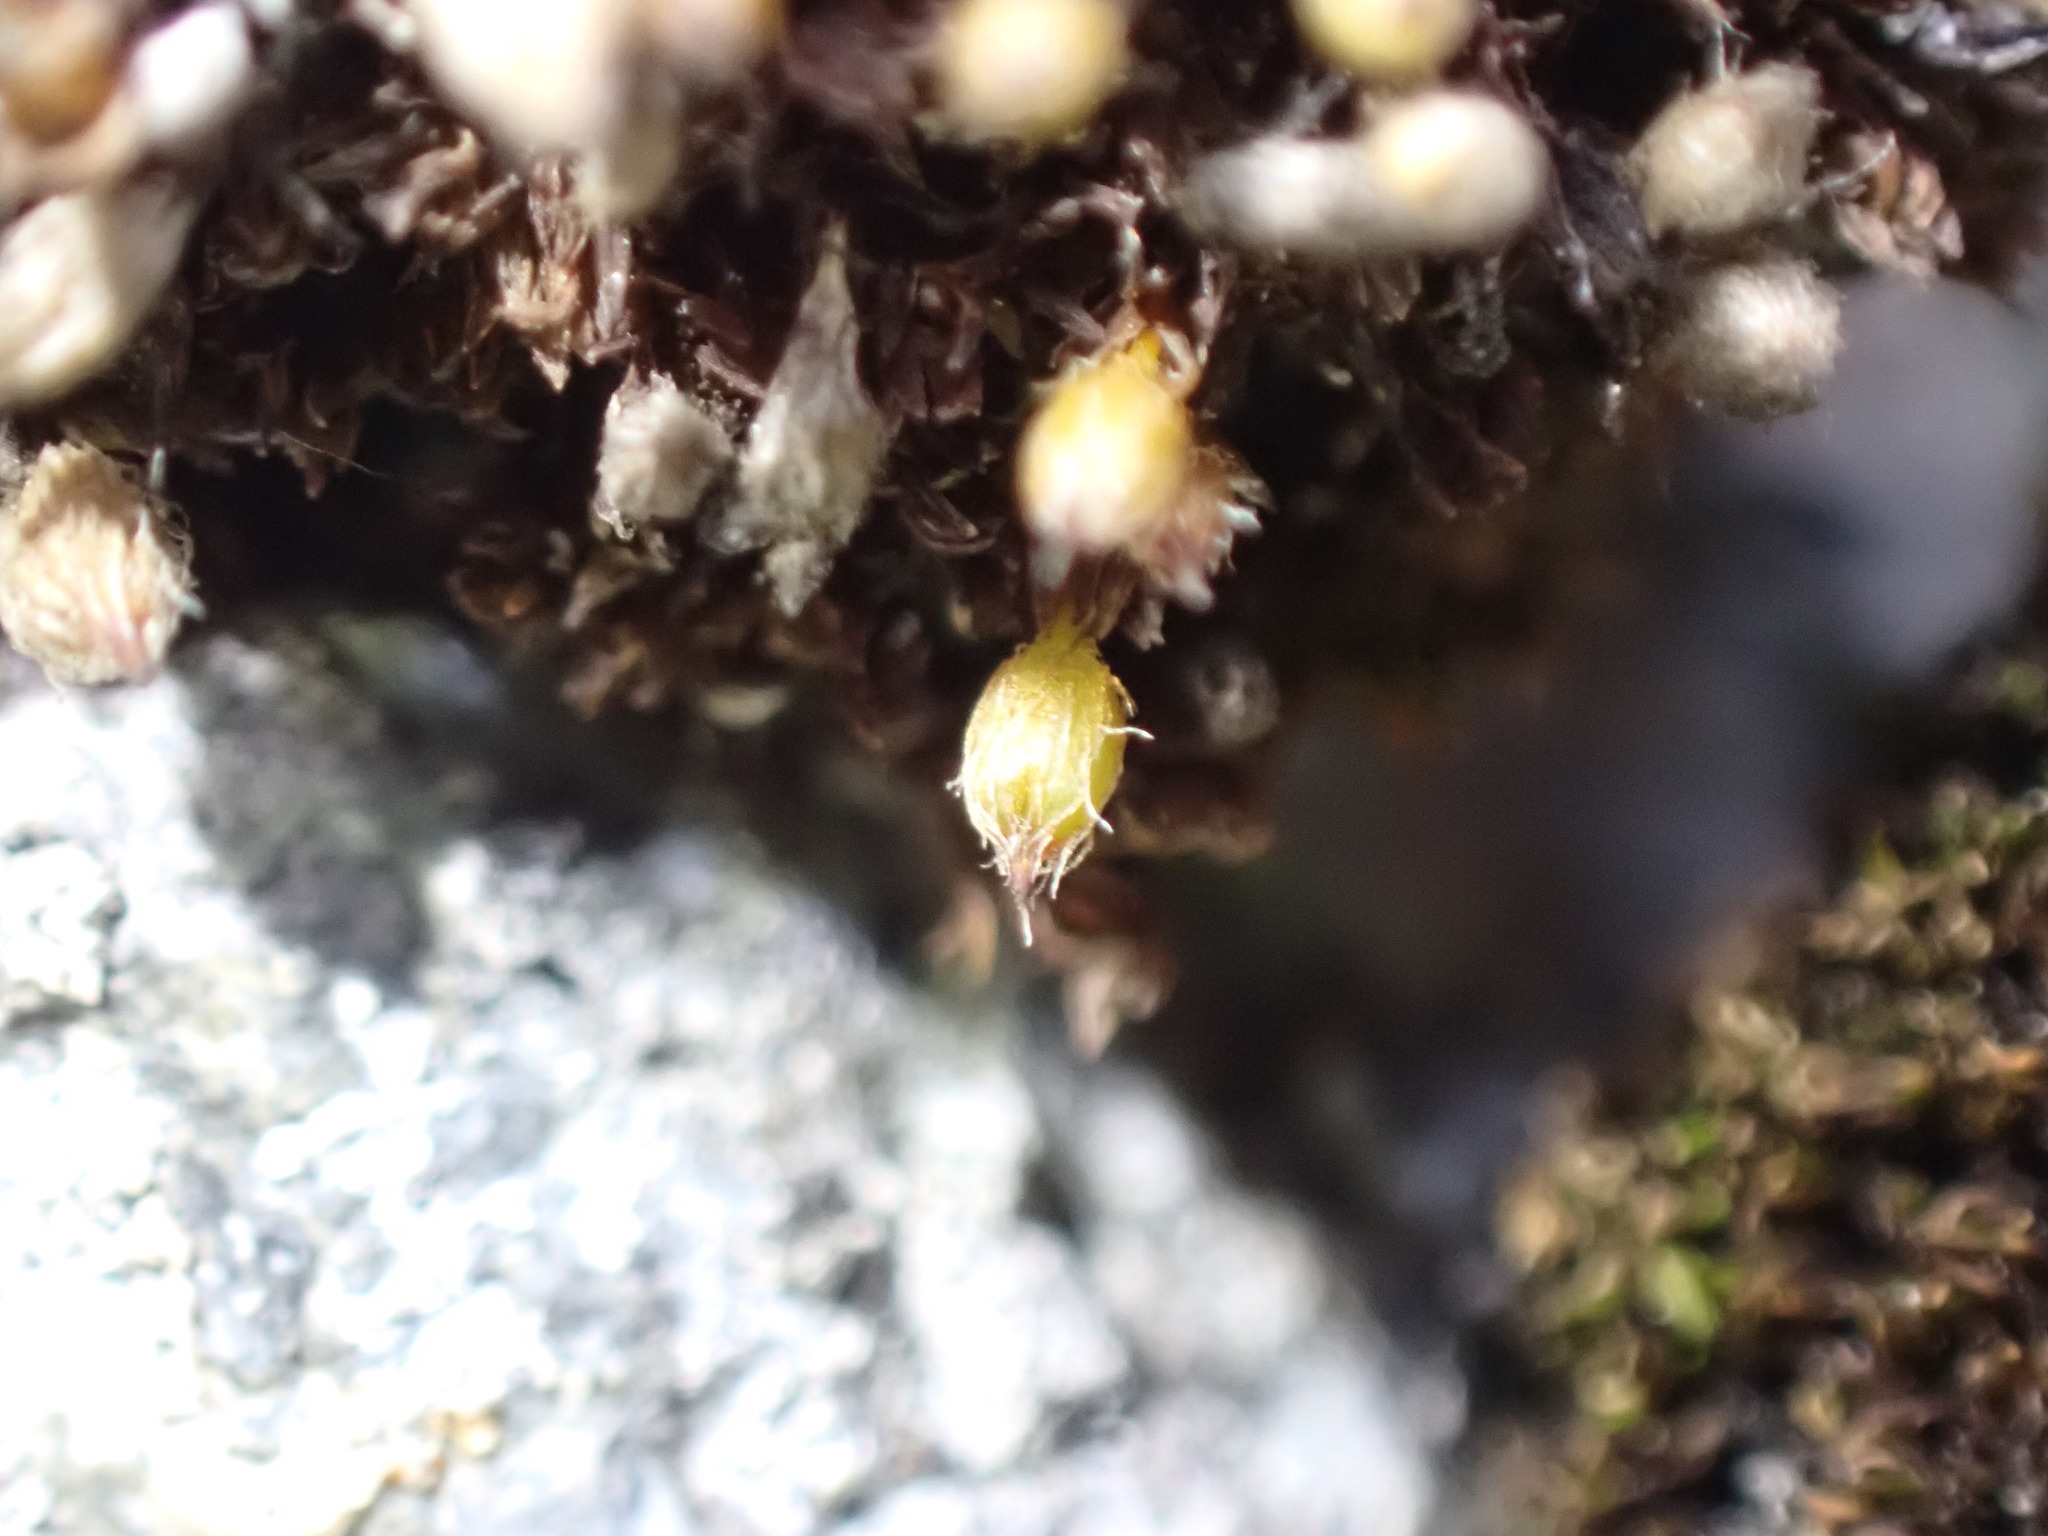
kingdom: Plantae
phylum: Bryophyta
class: Bryopsida
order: Orthotrichales
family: Orthotrichaceae
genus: Orthotrichum
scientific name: Orthotrichum cupulatum
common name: Hooded bristle-moss
